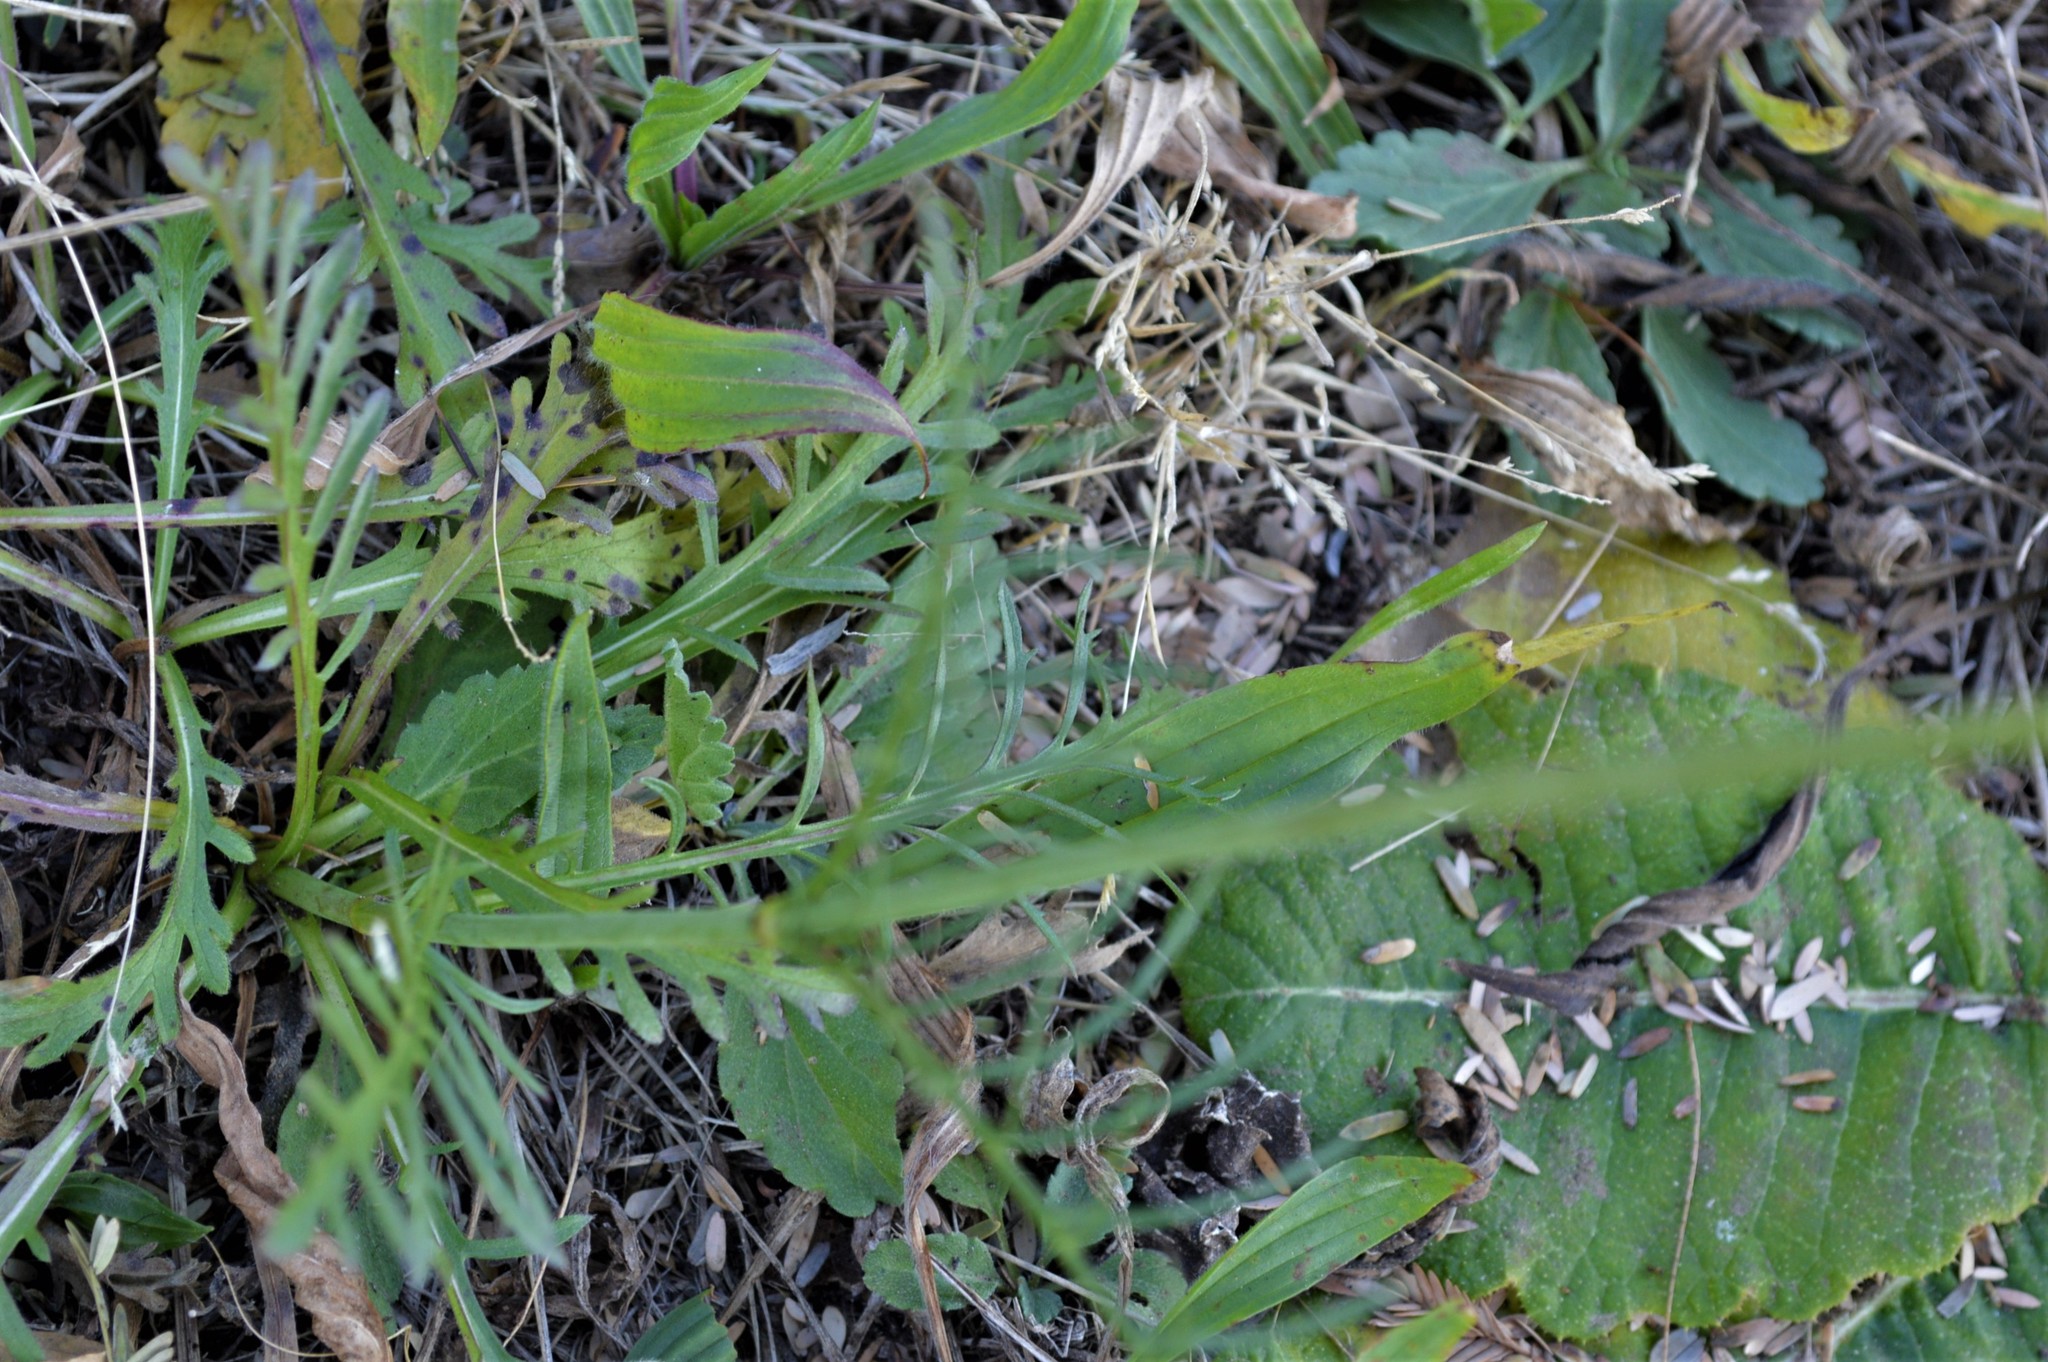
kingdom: Plantae
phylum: Tracheophyta
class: Magnoliopsida
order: Dipsacales
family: Caprifoliaceae
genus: Scabiosa
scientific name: Scabiosa columbaria
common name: Small scabious
